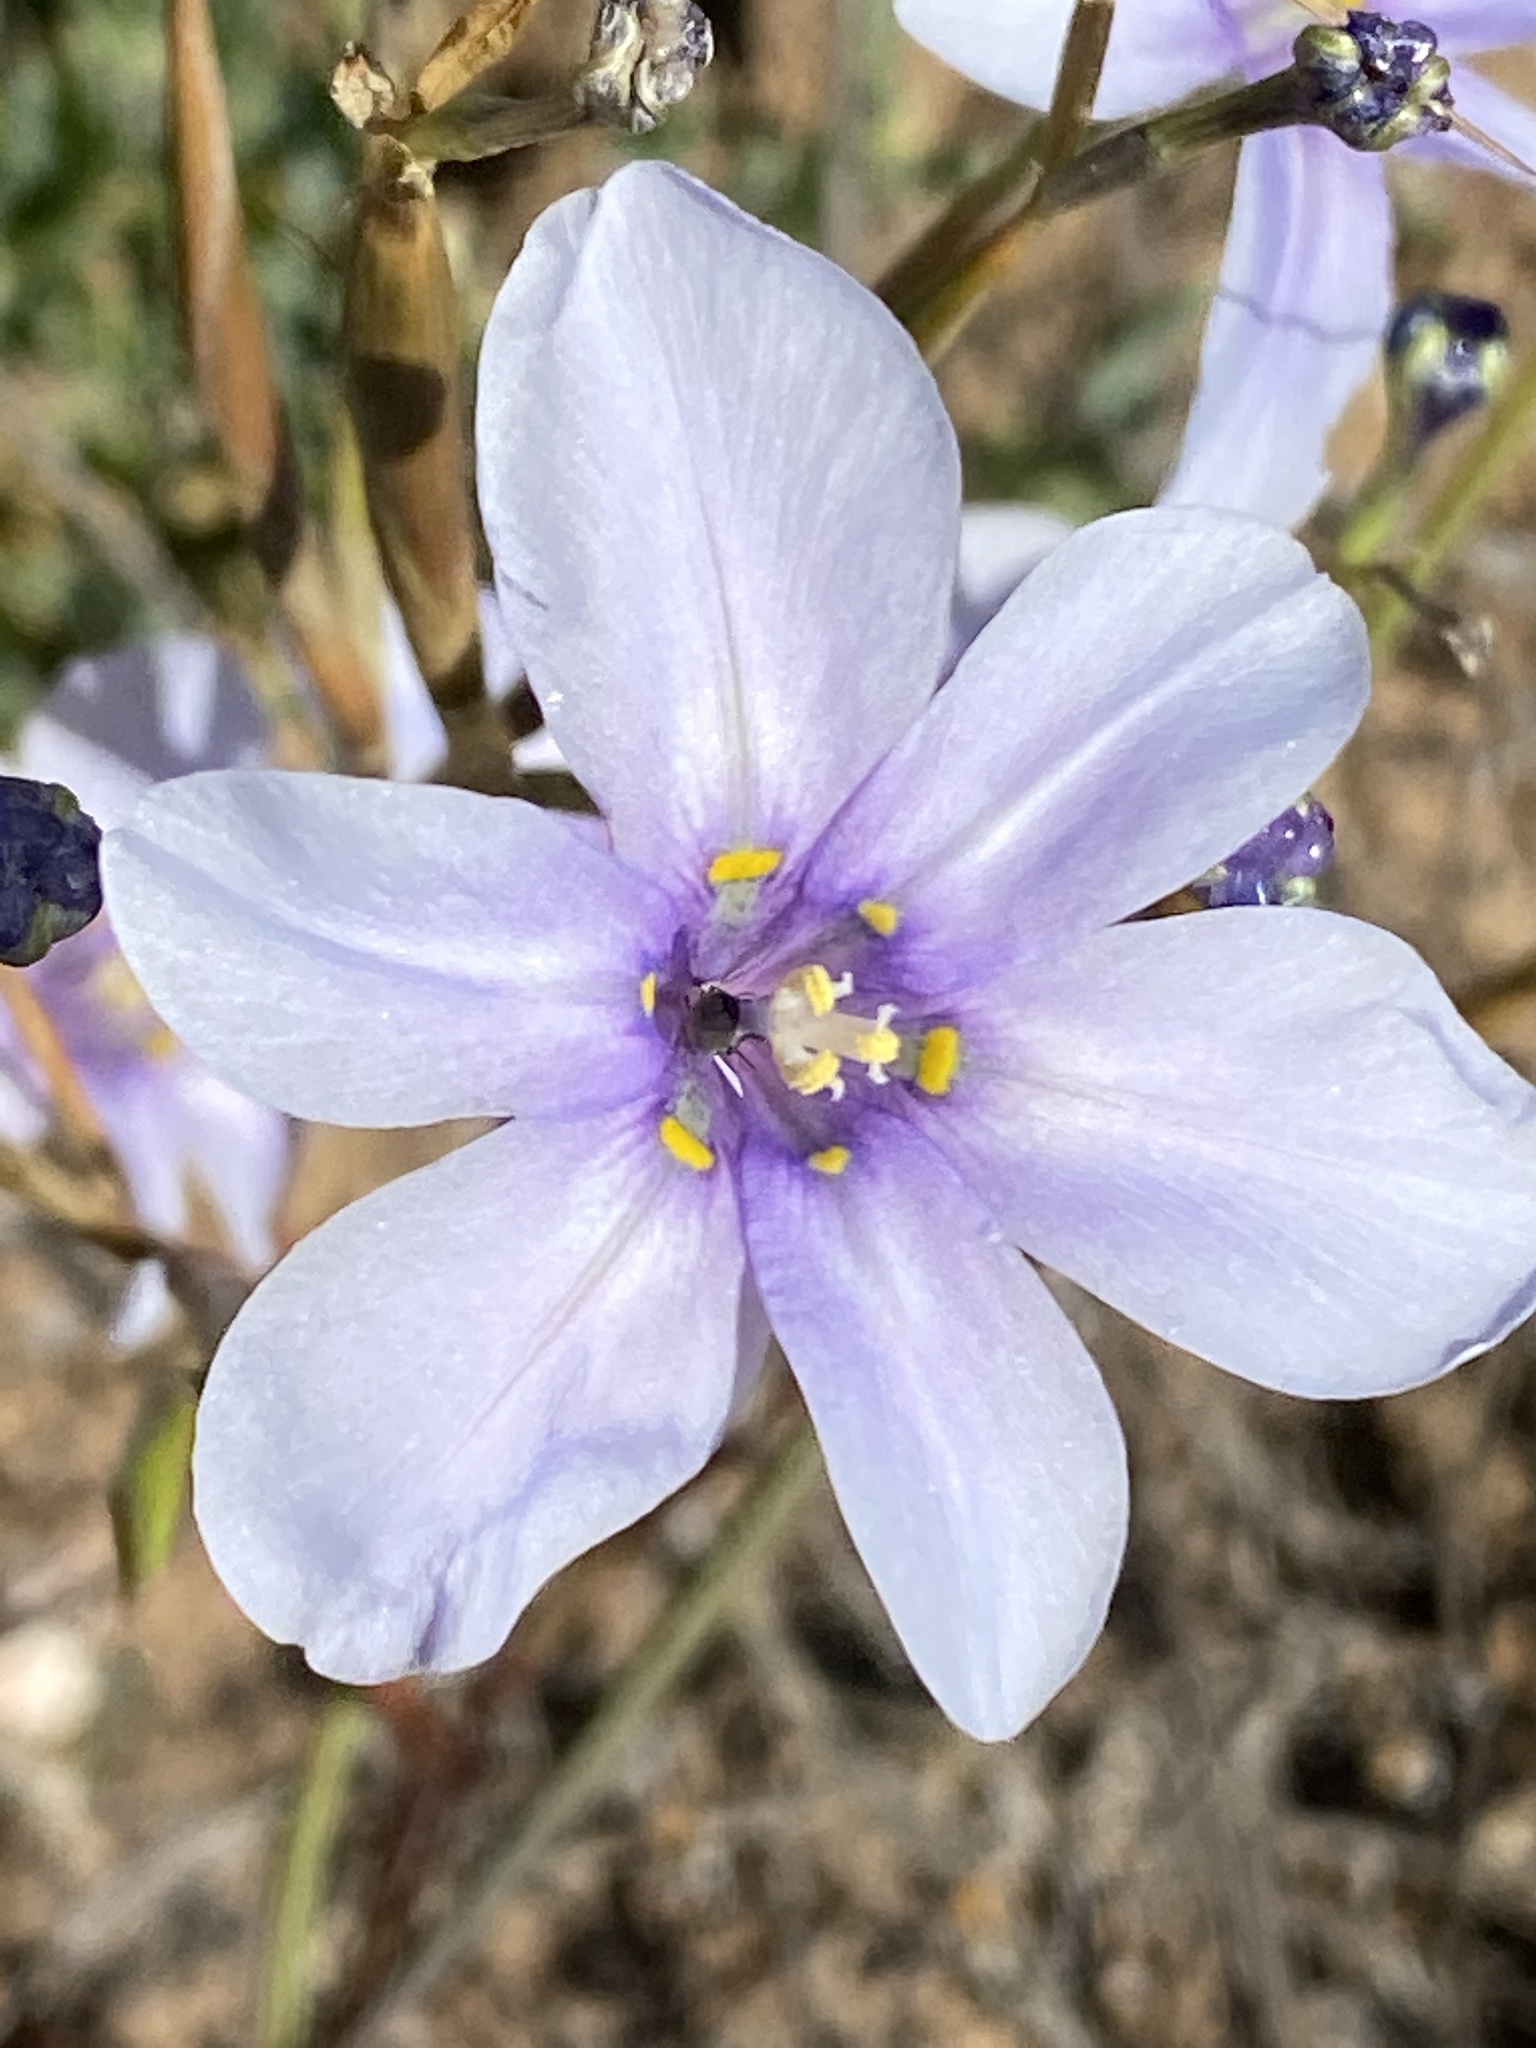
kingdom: Plantae
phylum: Tracheophyta
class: Liliopsida
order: Asparagales
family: Iridaceae
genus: Moraea
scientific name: Moraea polyanthos
